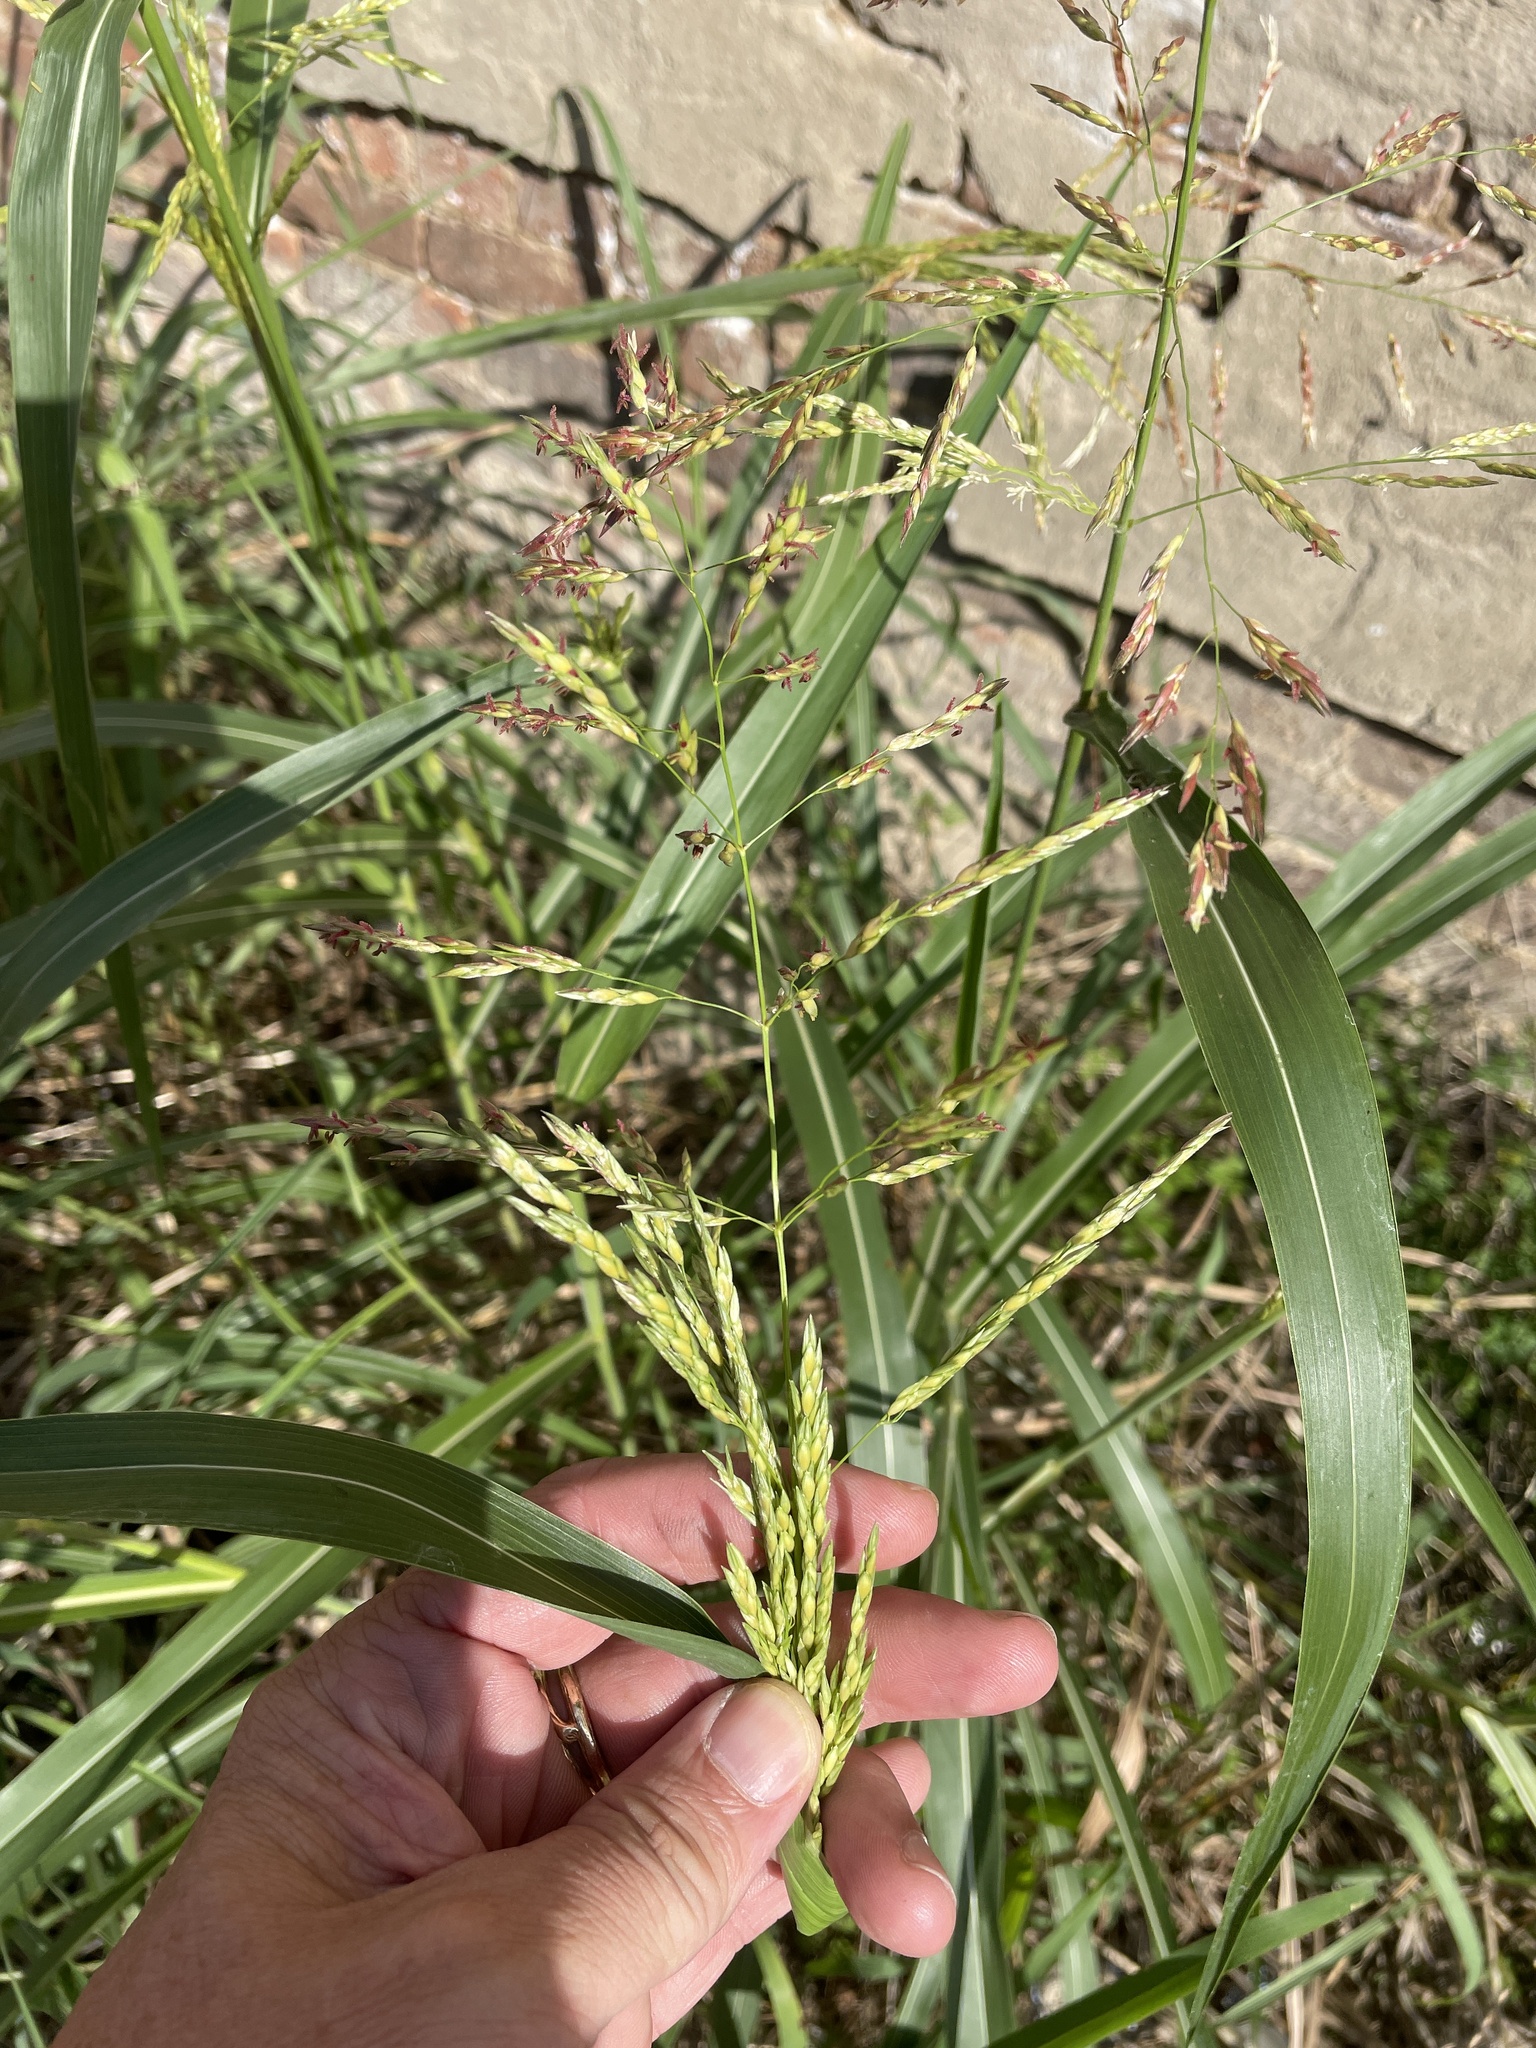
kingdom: Plantae
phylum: Tracheophyta
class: Liliopsida
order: Poales
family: Poaceae
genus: Sorghum
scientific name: Sorghum halepense
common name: Johnson-grass
